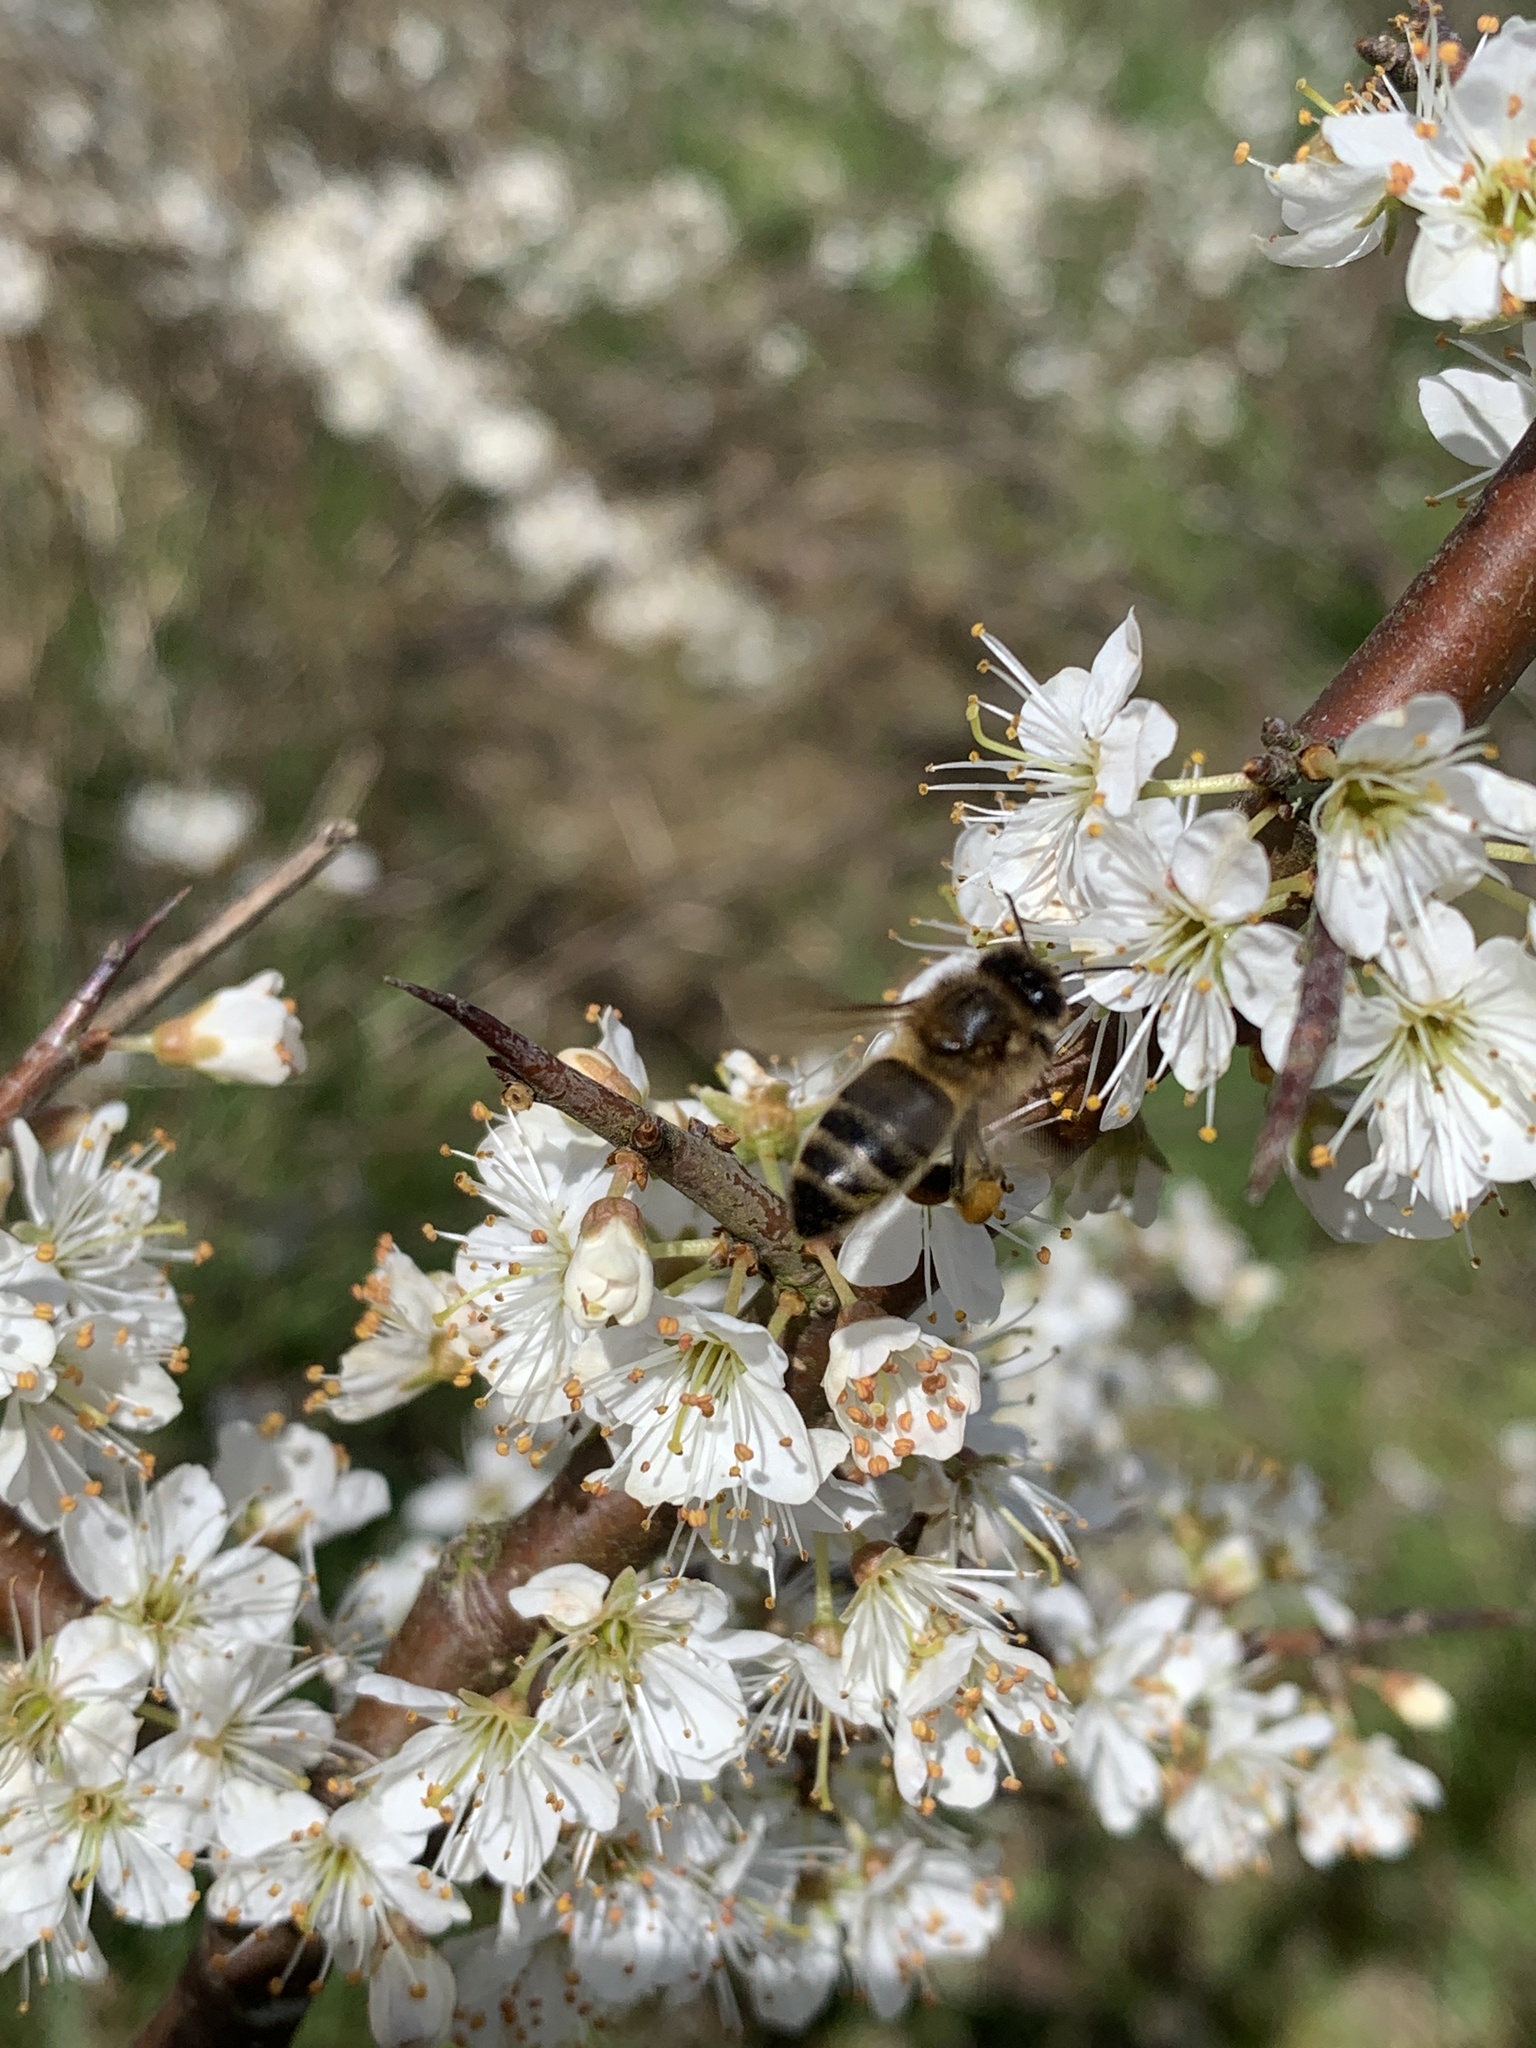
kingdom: Animalia
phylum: Arthropoda
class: Insecta
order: Hymenoptera
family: Apidae
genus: Apis
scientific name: Apis mellifera
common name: Honey bee
